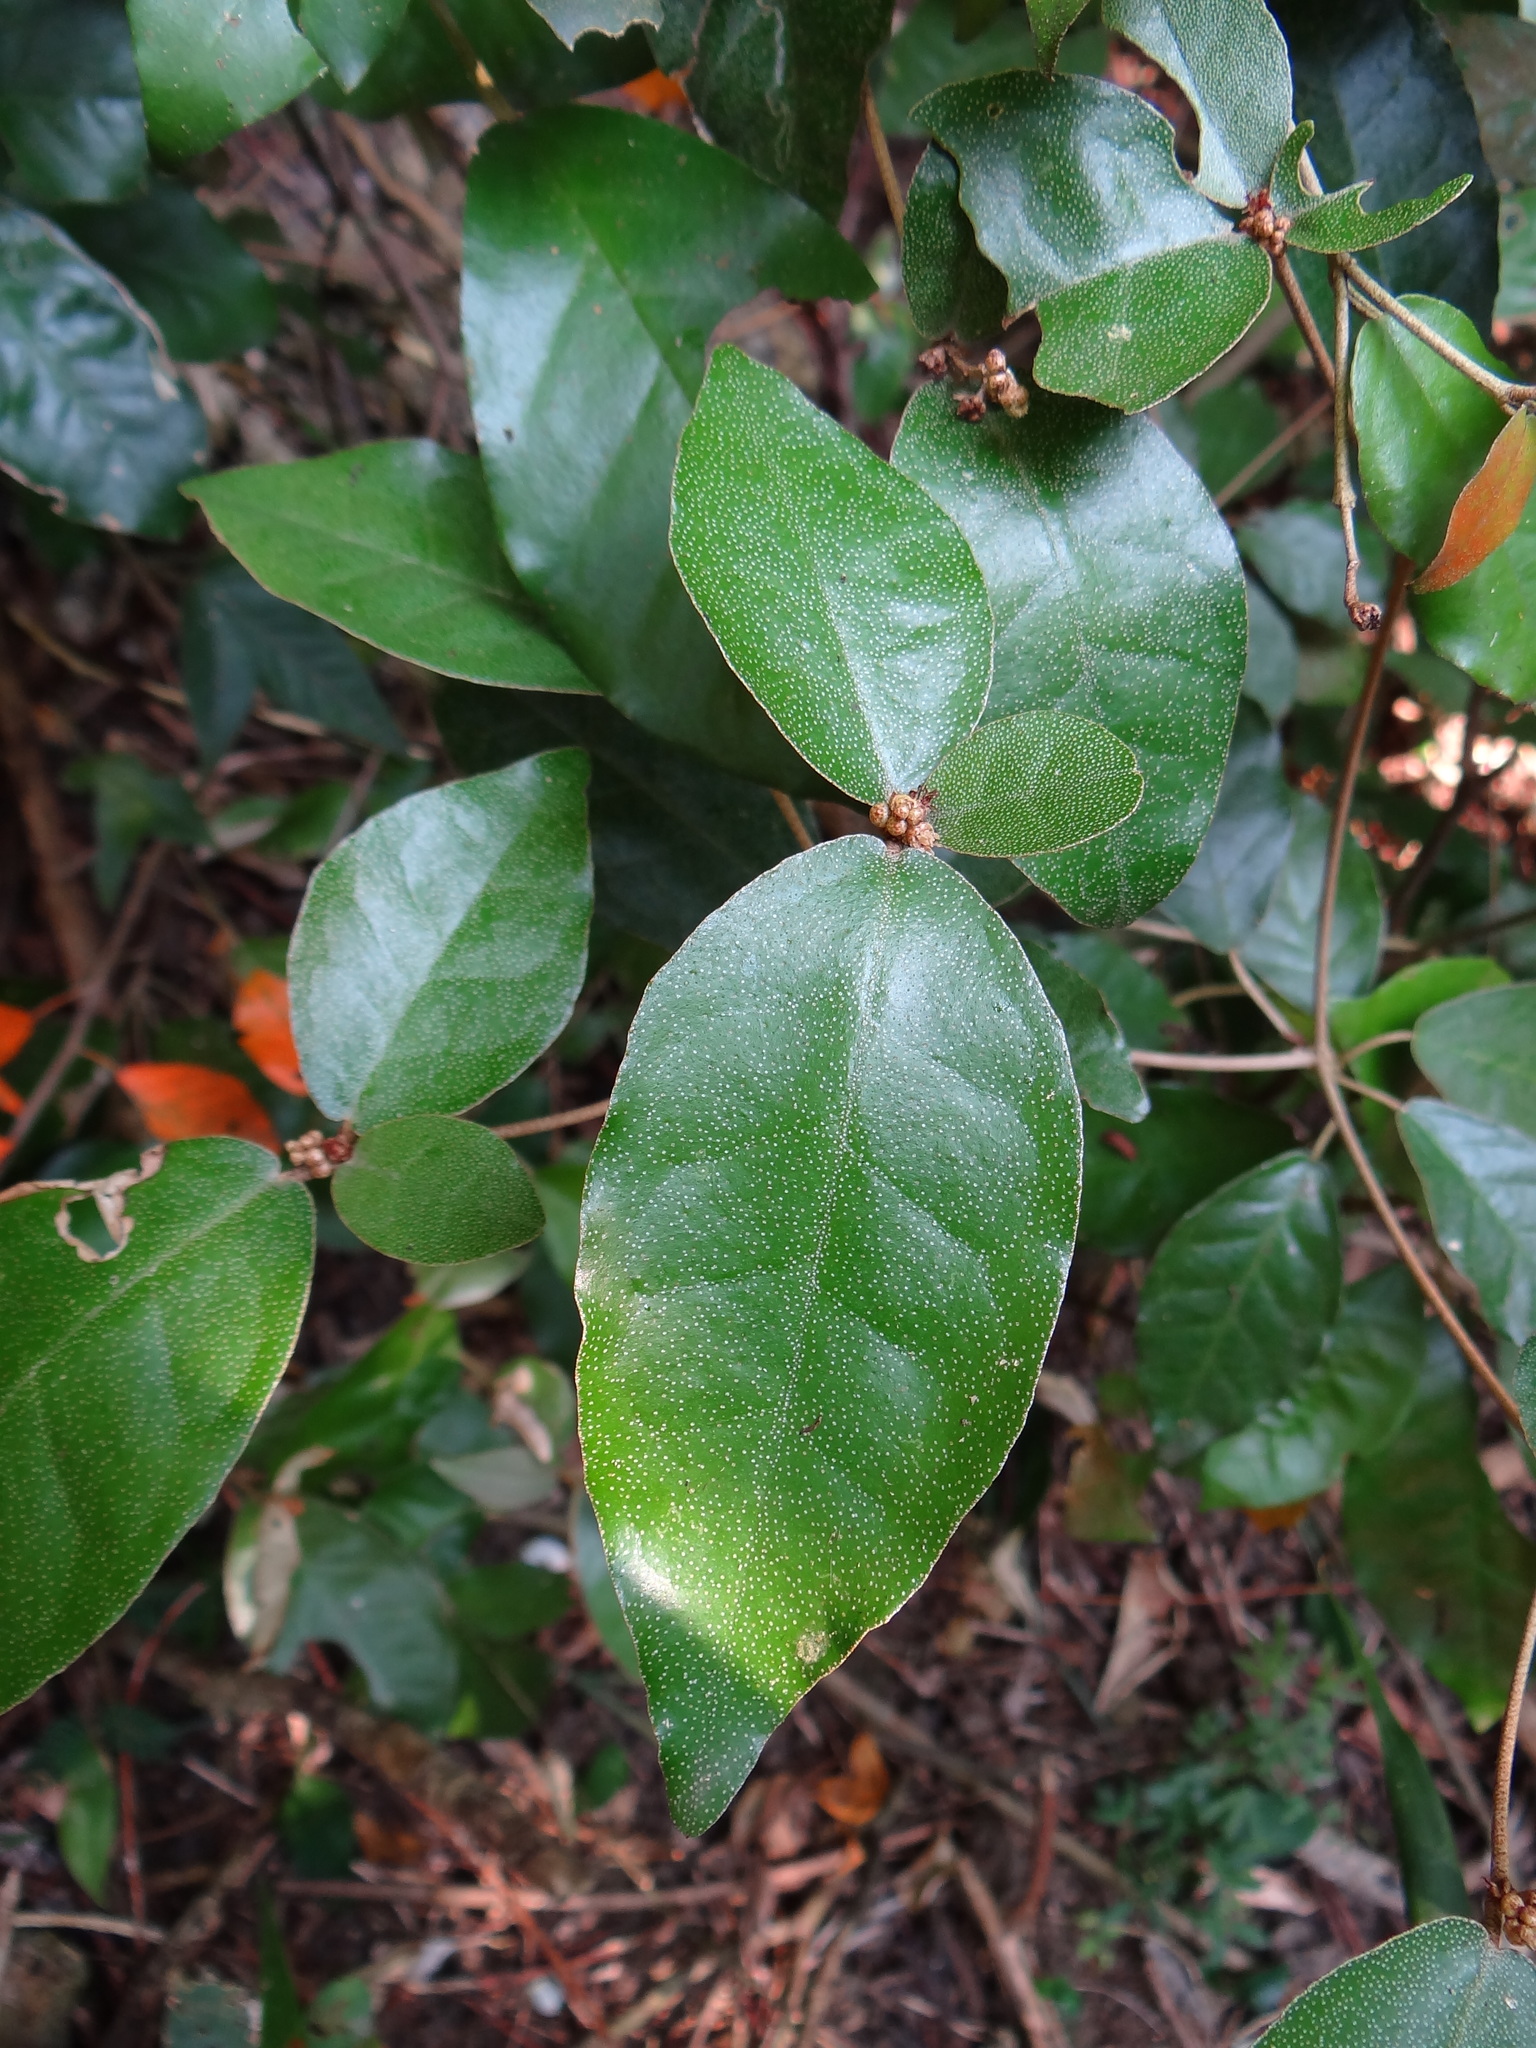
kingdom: Plantae
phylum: Tracheophyta
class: Magnoliopsida
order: Malpighiales
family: Euphorbiaceae
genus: Croton
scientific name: Croton cascarilloides
